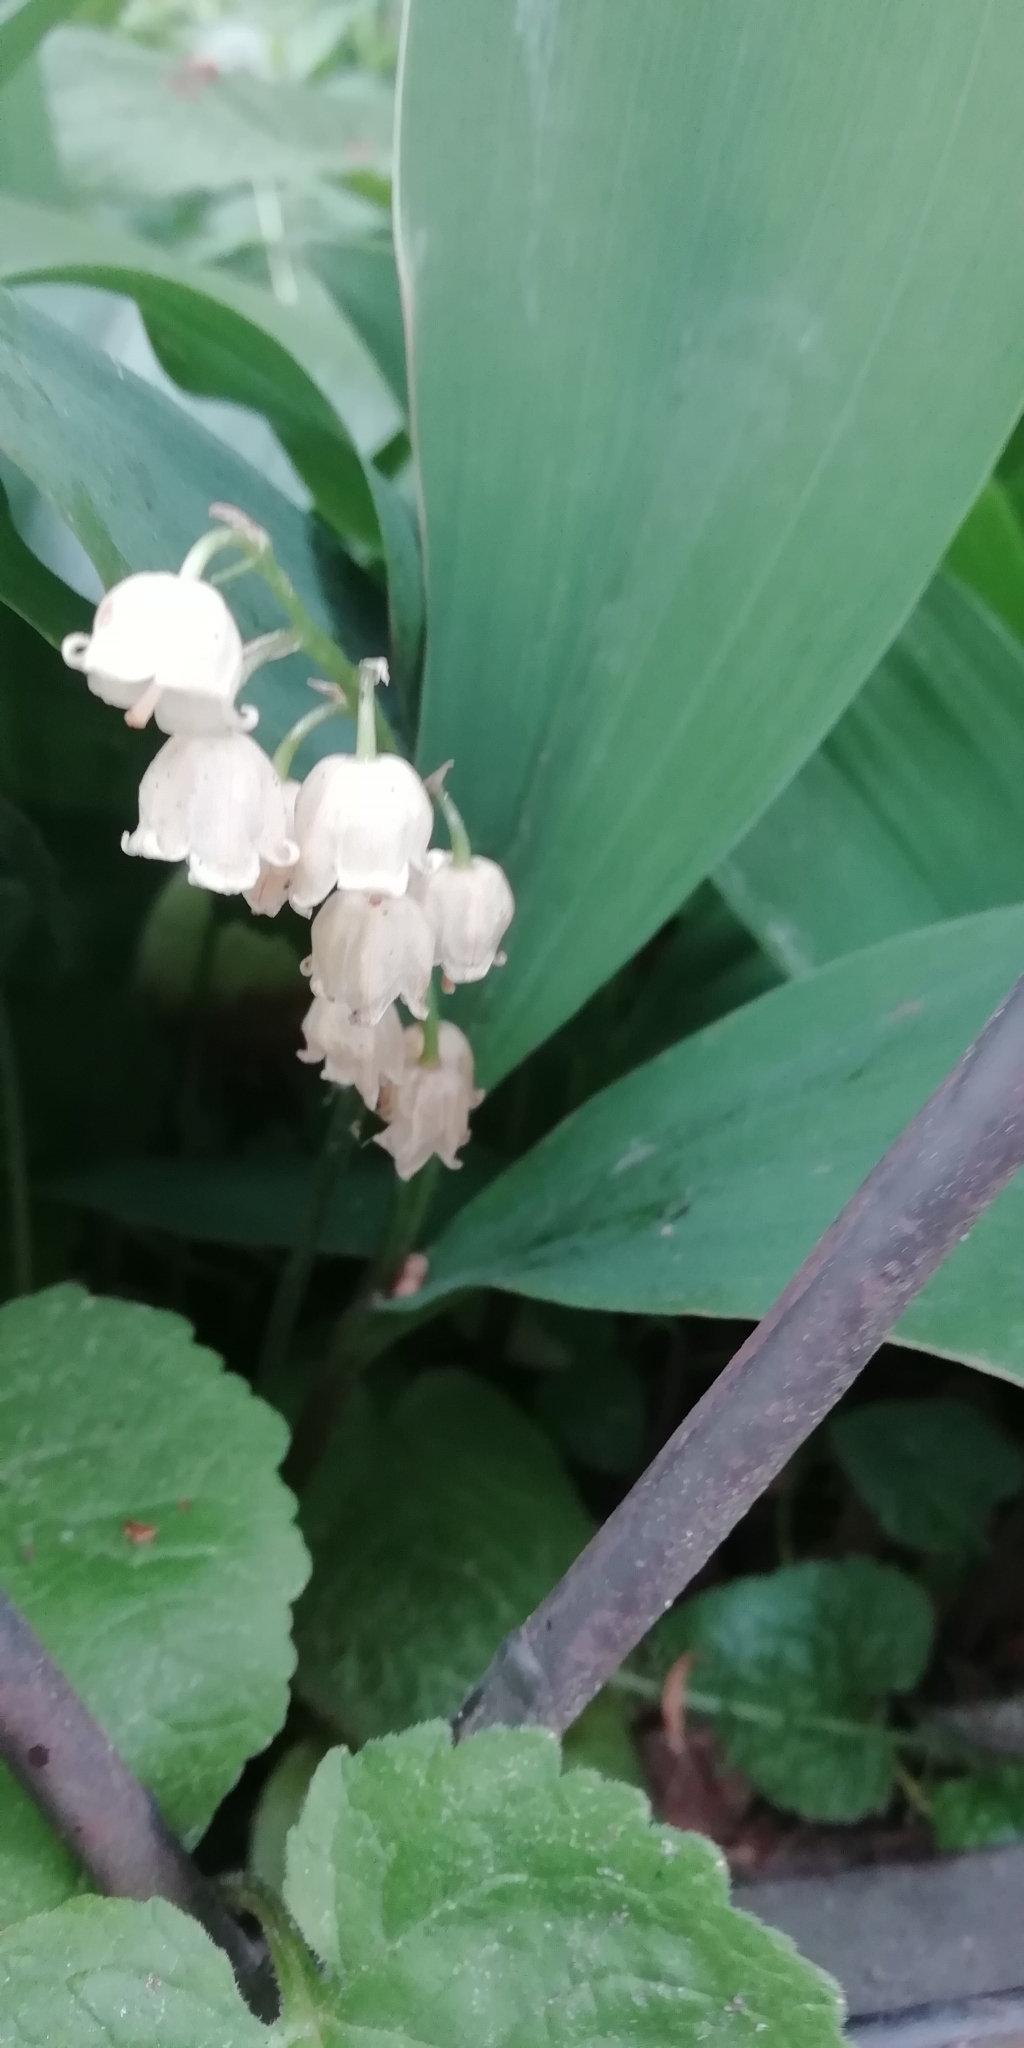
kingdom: Plantae
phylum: Tracheophyta
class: Liliopsida
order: Asparagales
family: Asparagaceae
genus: Convallaria
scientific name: Convallaria majalis
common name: Lily-of-the-valley
